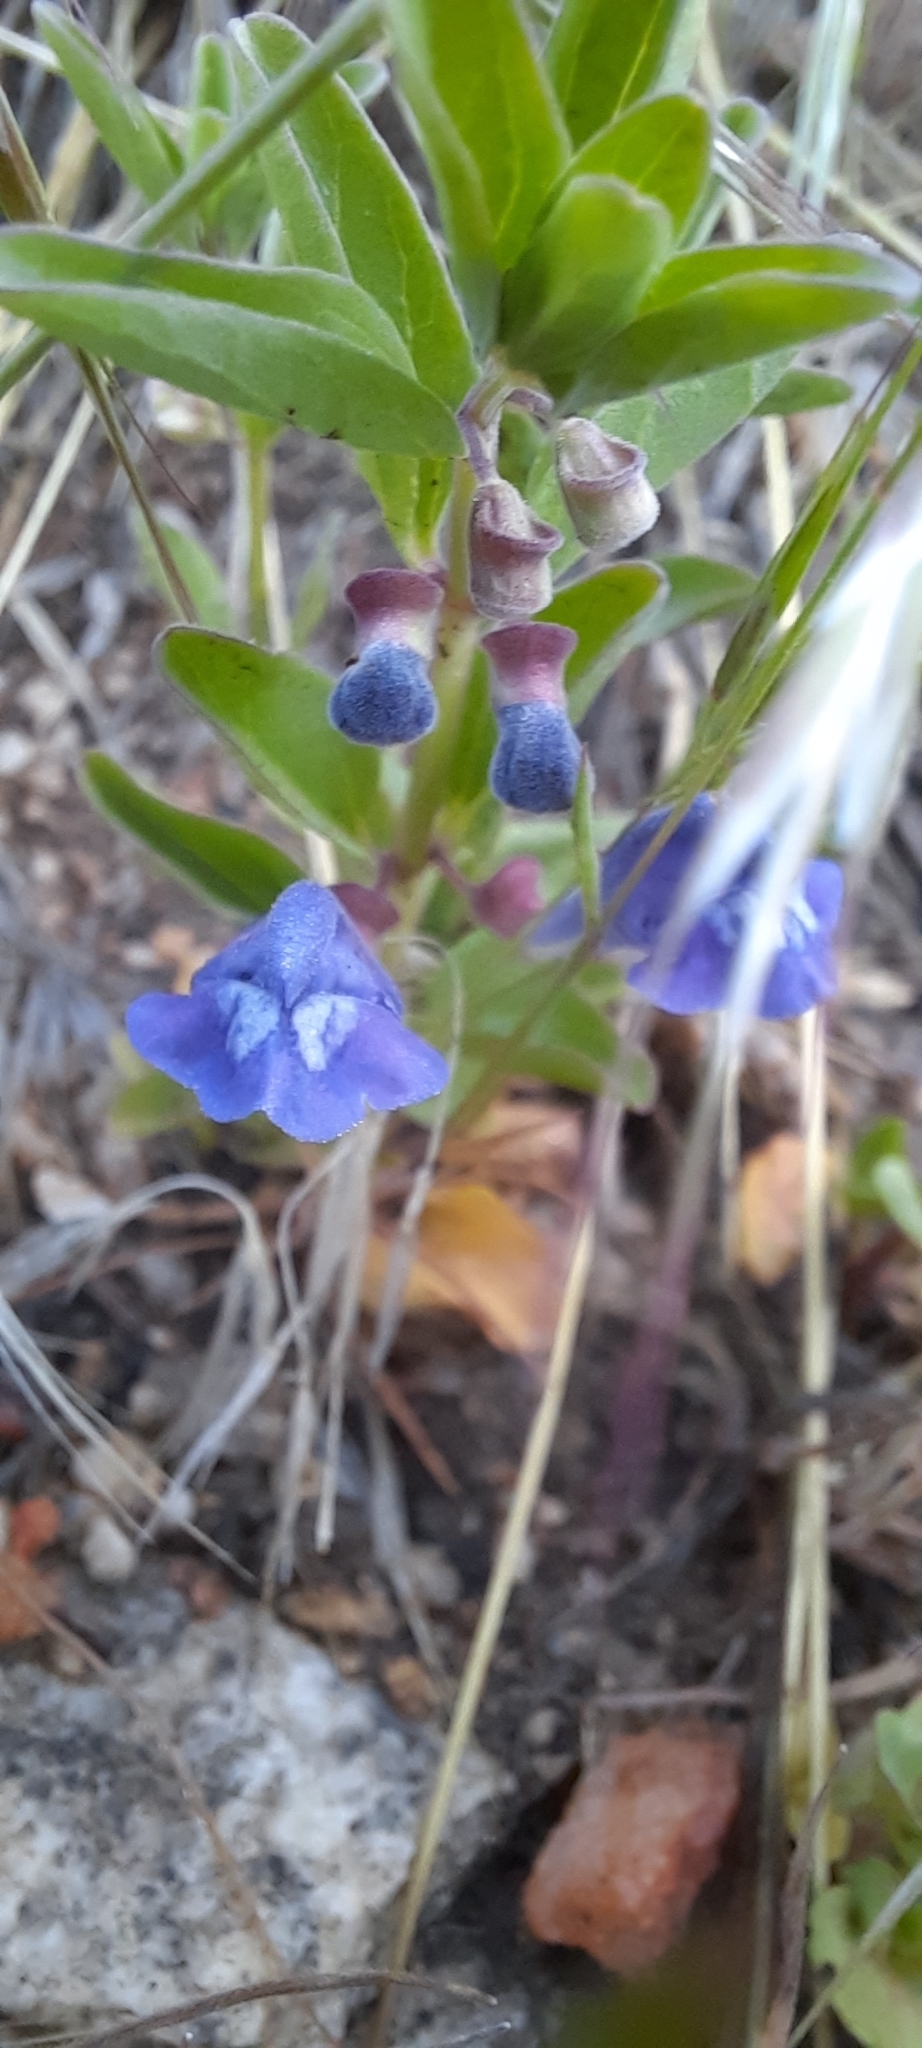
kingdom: Plantae
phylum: Tracheophyta
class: Magnoliopsida
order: Lamiales
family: Lamiaceae
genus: Scutellaria
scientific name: Scutellaria angustifolia
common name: Narrow-leaved skullcap
